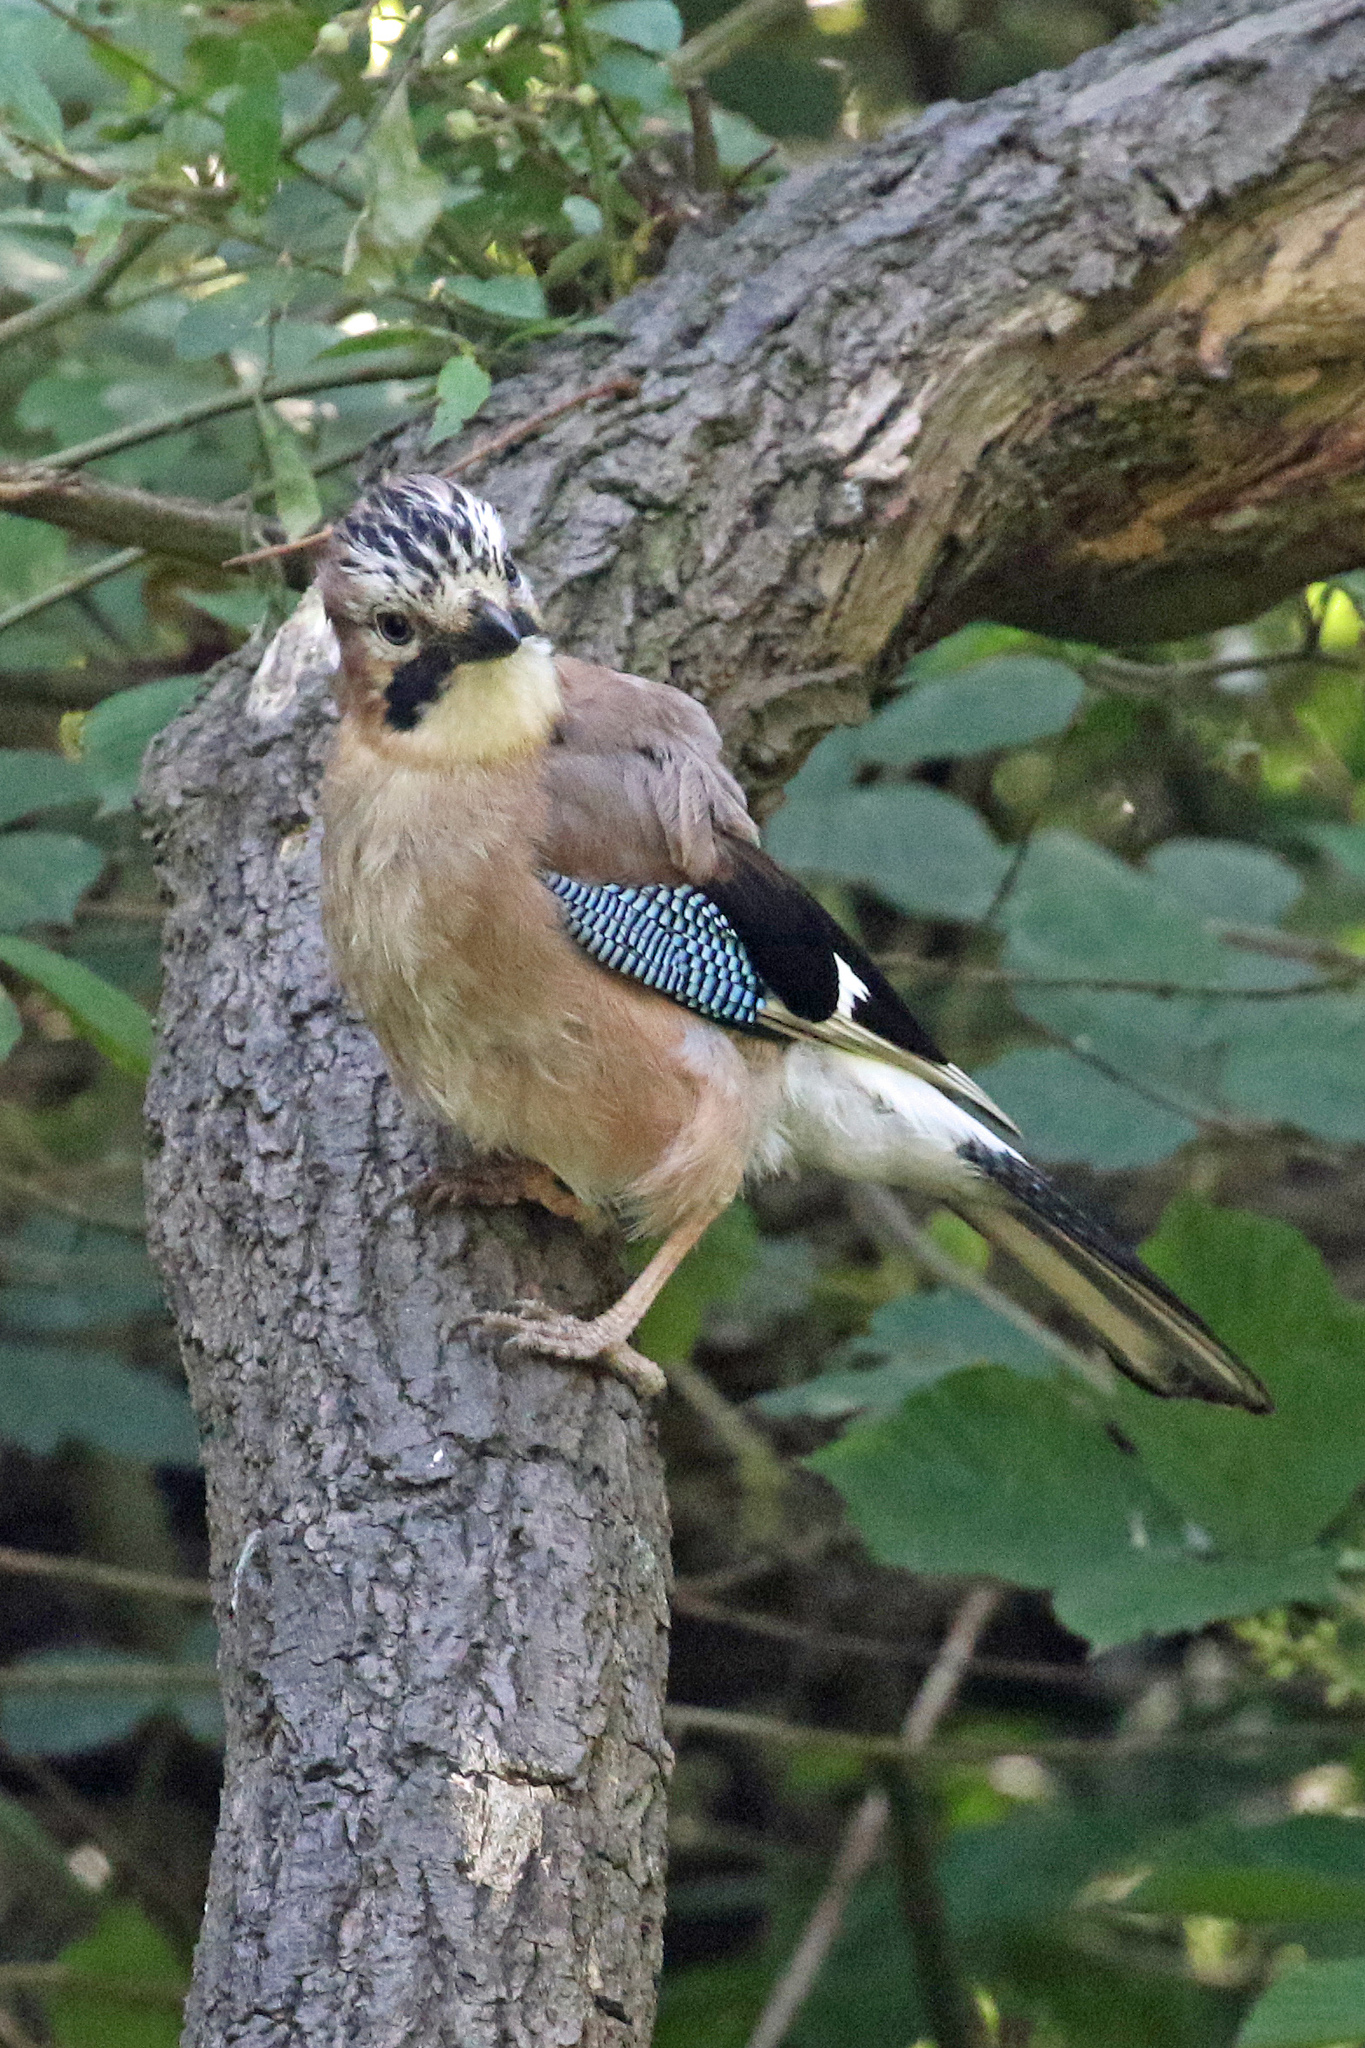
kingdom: Animalia
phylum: Chordata
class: Aves
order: Passeriformes
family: Corvidae
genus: Garrulus
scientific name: Garrulus glandarius
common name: Eurasian jay
